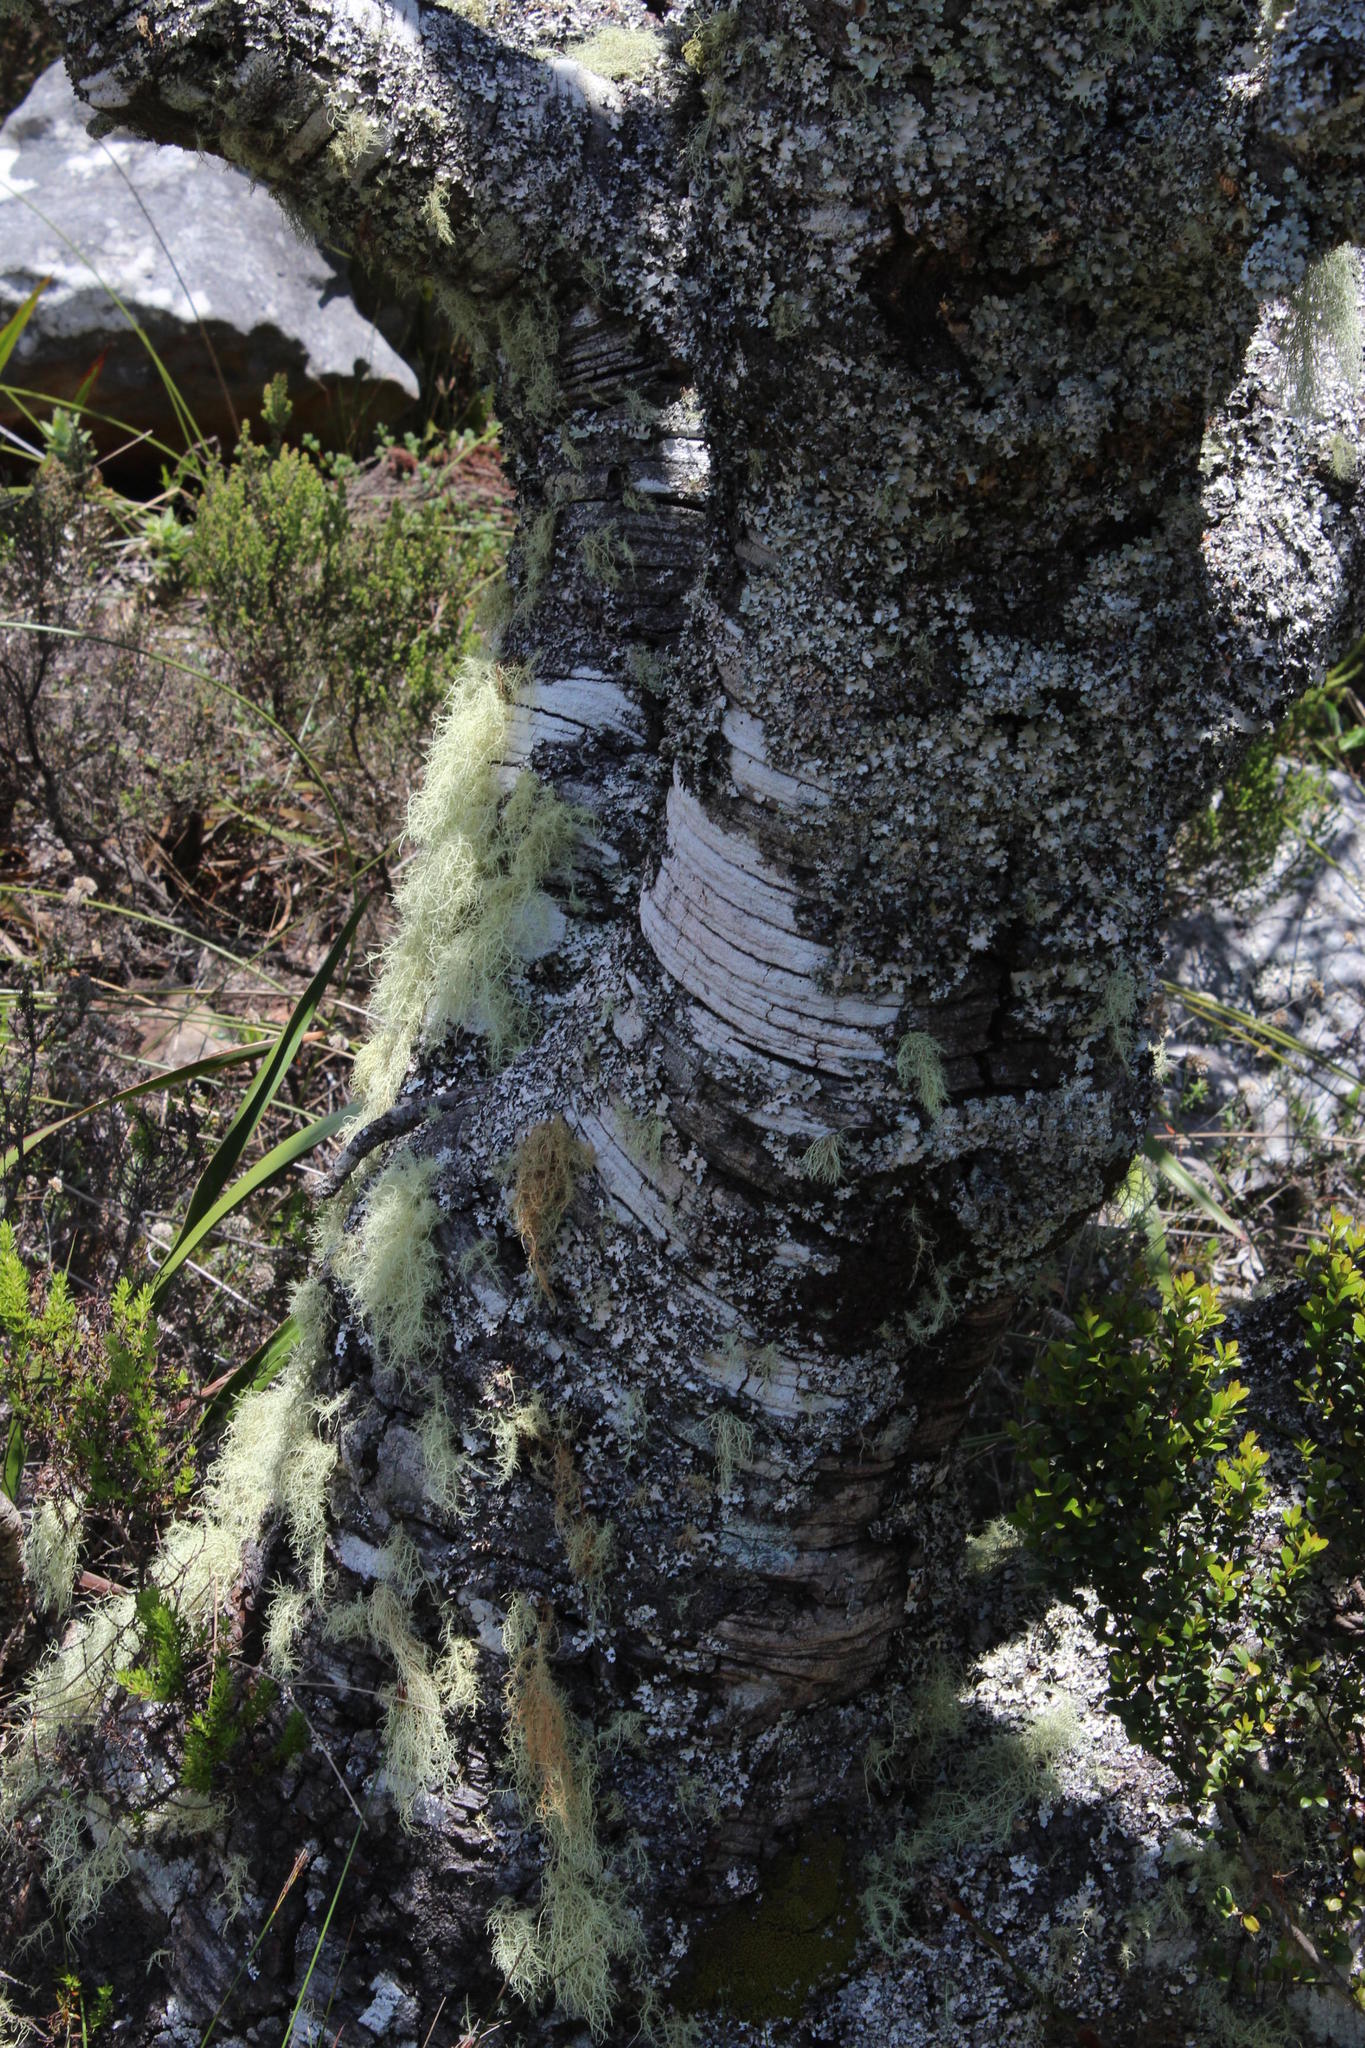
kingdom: Plantae
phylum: Tracheophyta
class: Magnoliopsida
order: Proteales
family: Proteaceae
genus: Mimetes
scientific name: Mimetes fimbriifolius
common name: Fringed bottlebrush
